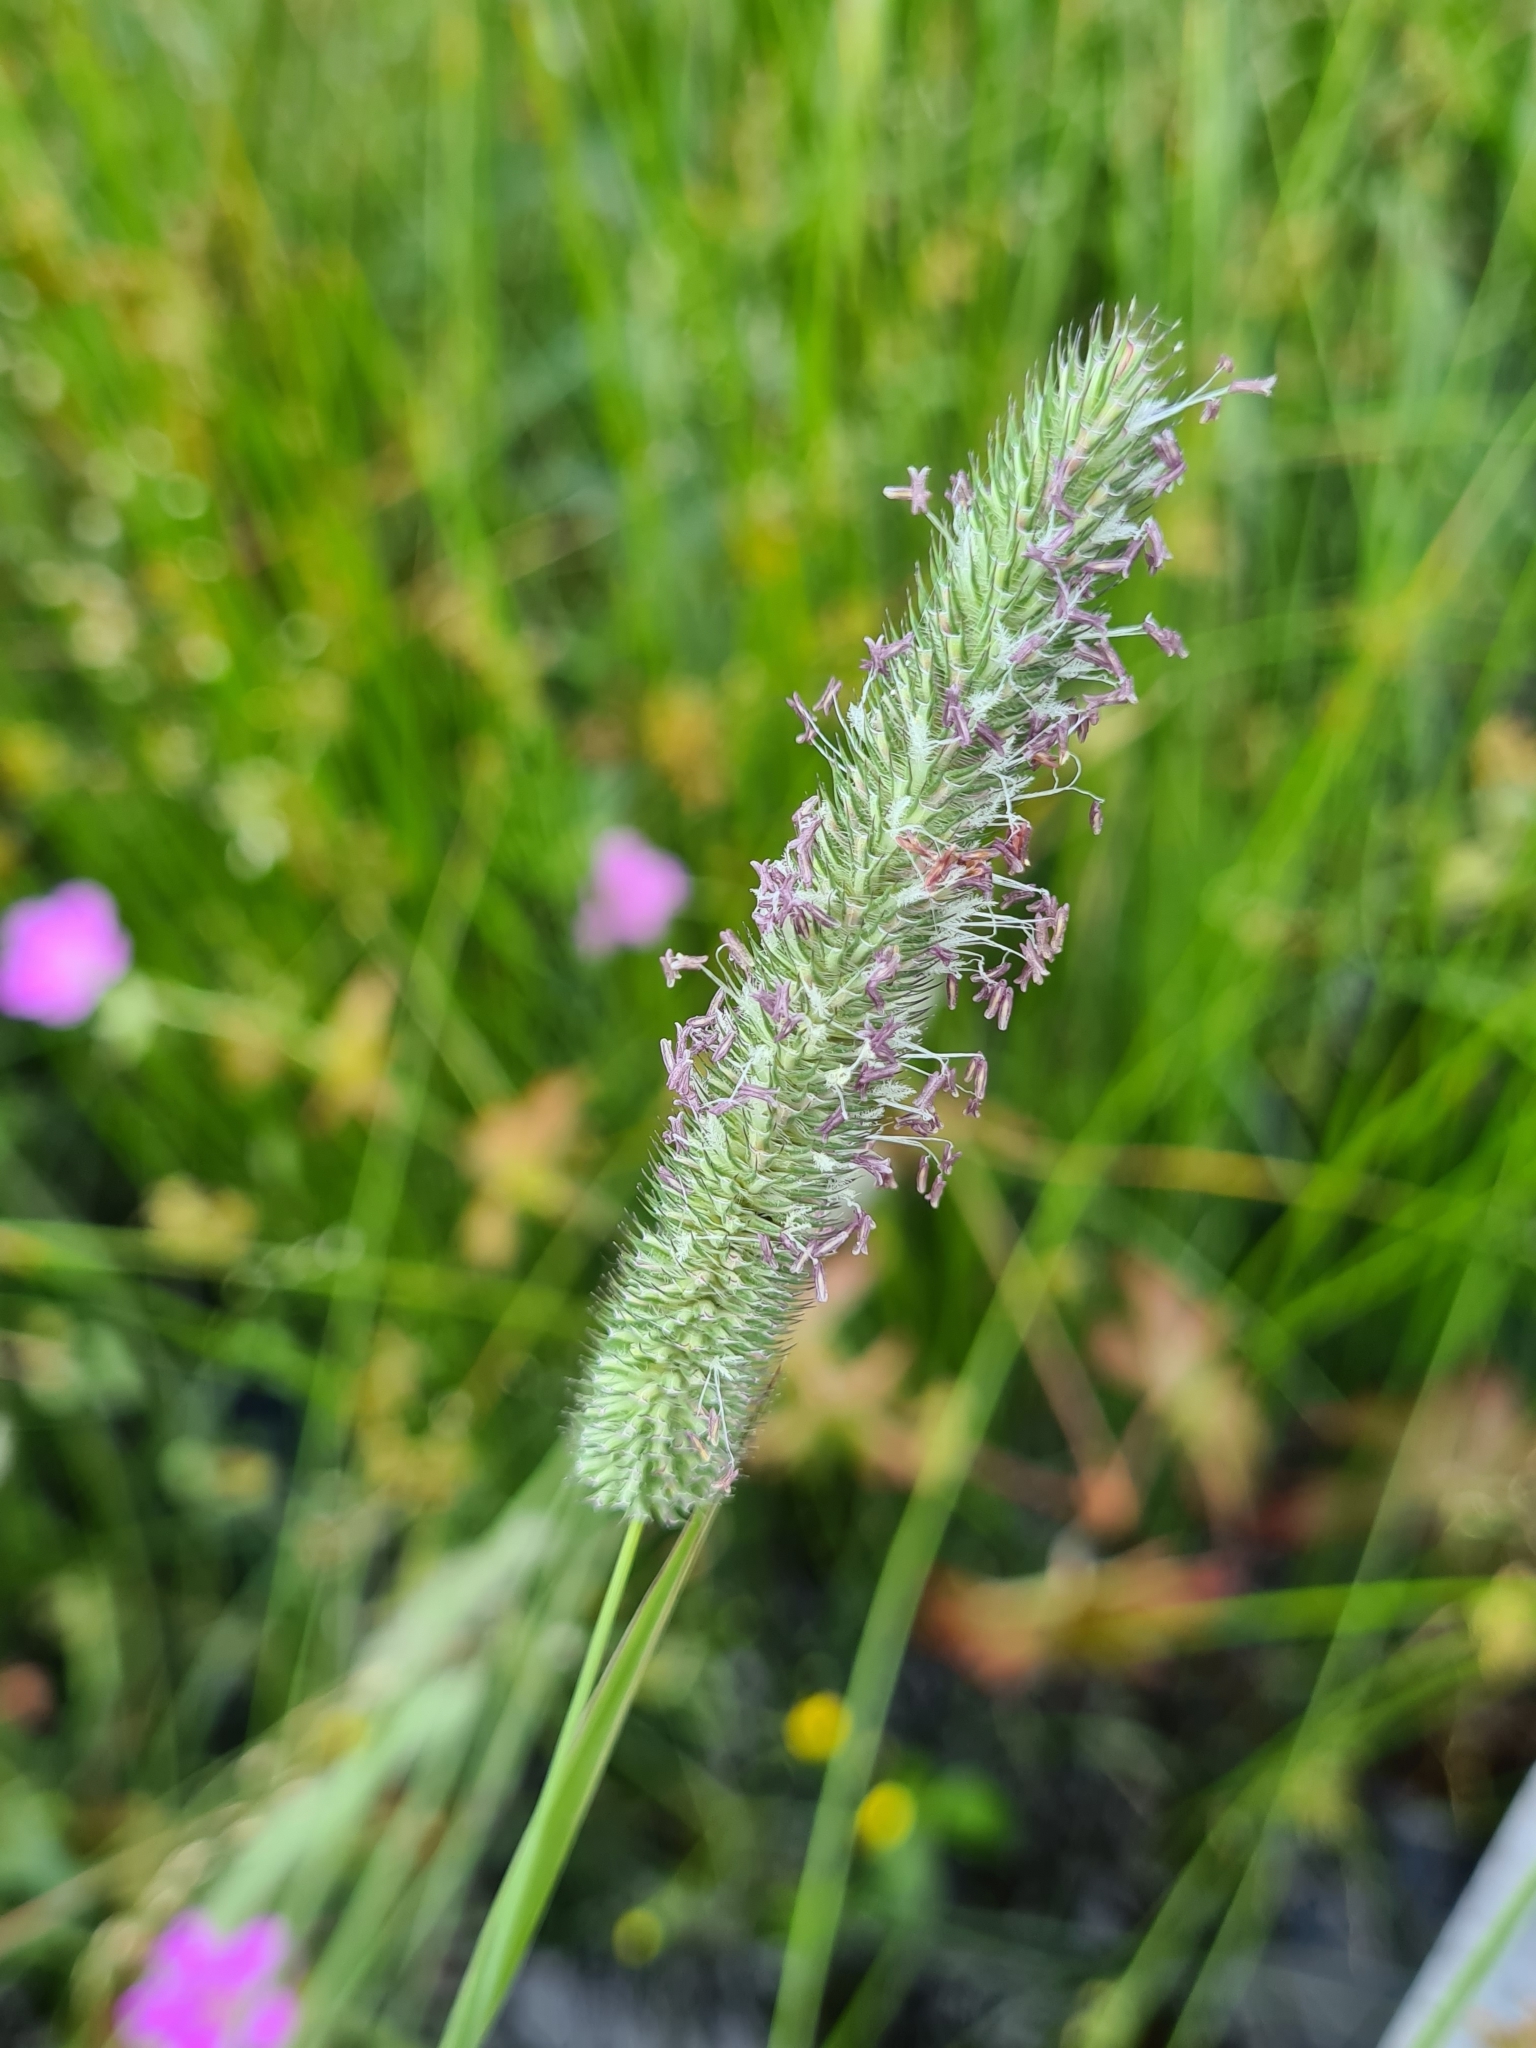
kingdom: Plantae
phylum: Tracheophyta
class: Liliopsida
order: Poales
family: Poaceae
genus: Phleum
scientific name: Phleum pratense
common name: Timothy grass
